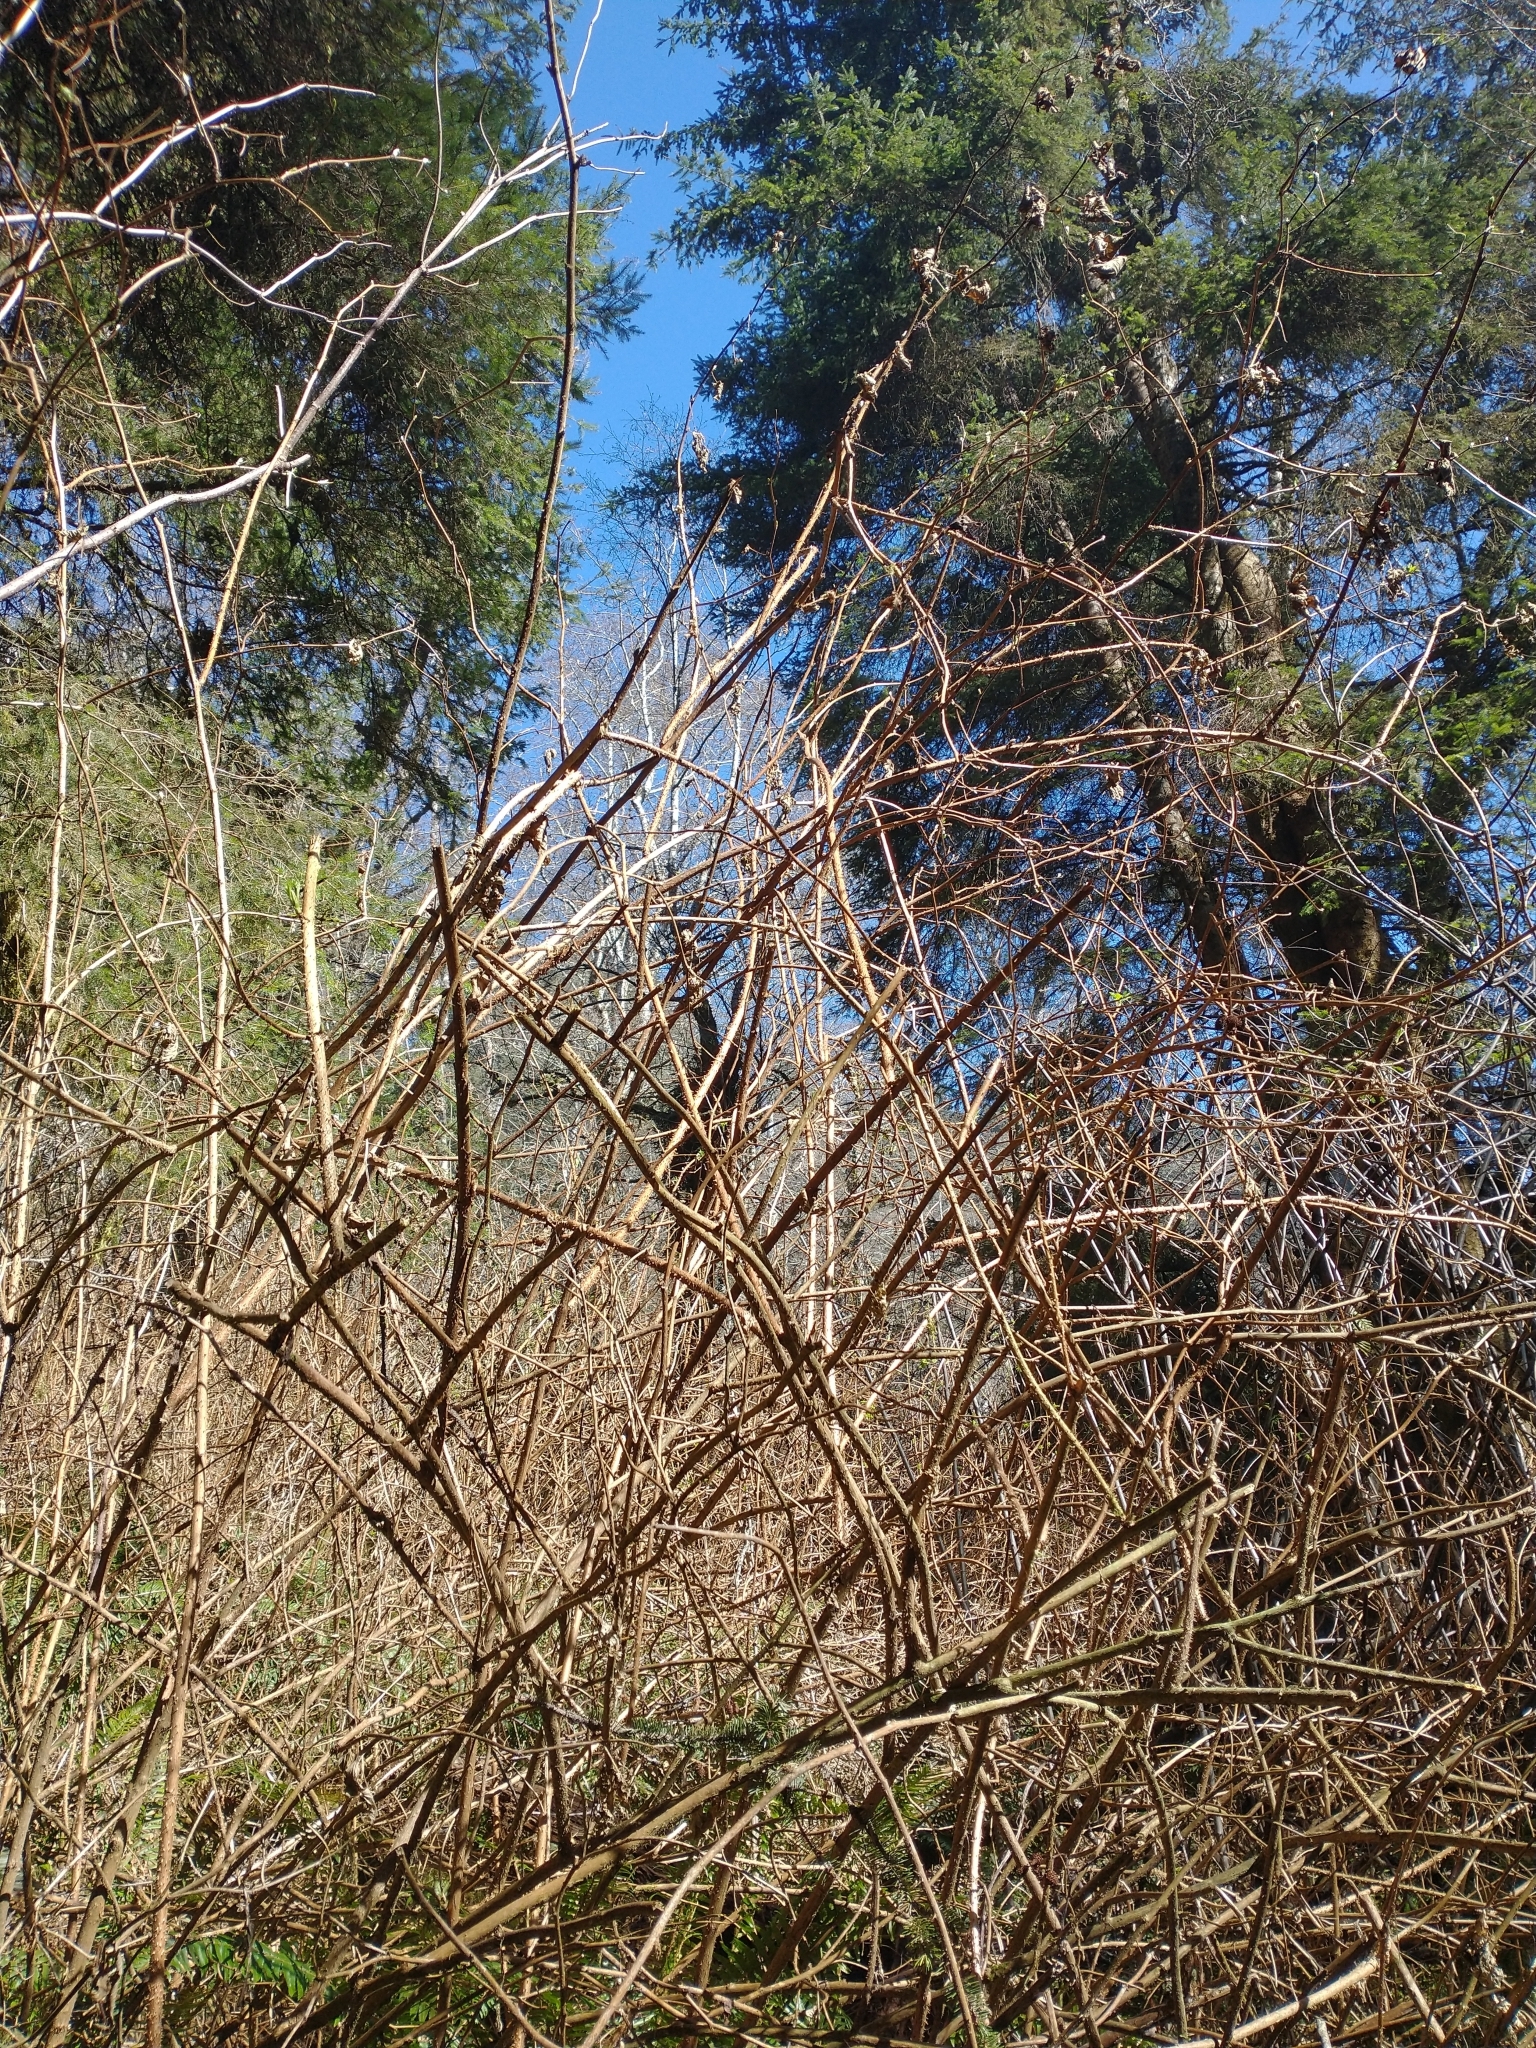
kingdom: Plantae
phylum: Tracheophyta
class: Magnoliopsida
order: Rosales
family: Rosaceae
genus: Rubus
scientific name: Rubus spectabilis
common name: Salmonberry
